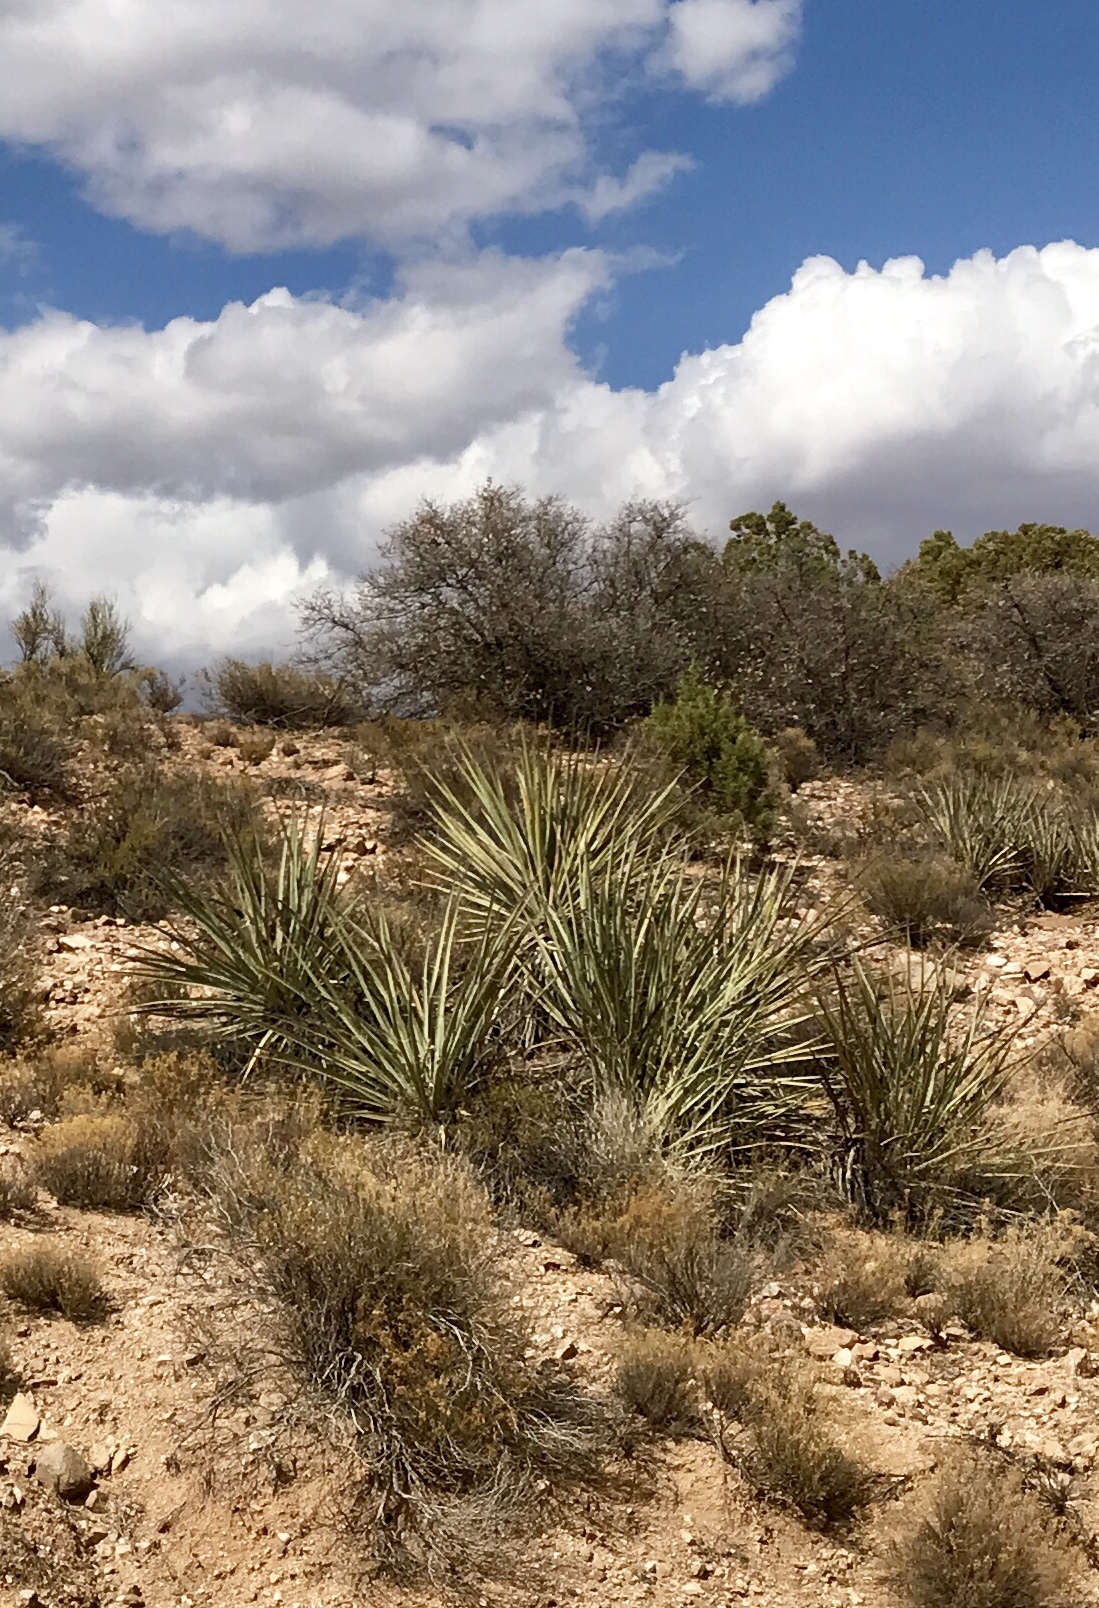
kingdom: Plantae
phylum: Tracheophyta
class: Liliopsida
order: Asparagales
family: Asparagaceae
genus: Yucca
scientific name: Yucca baccata
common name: Banana yucca
